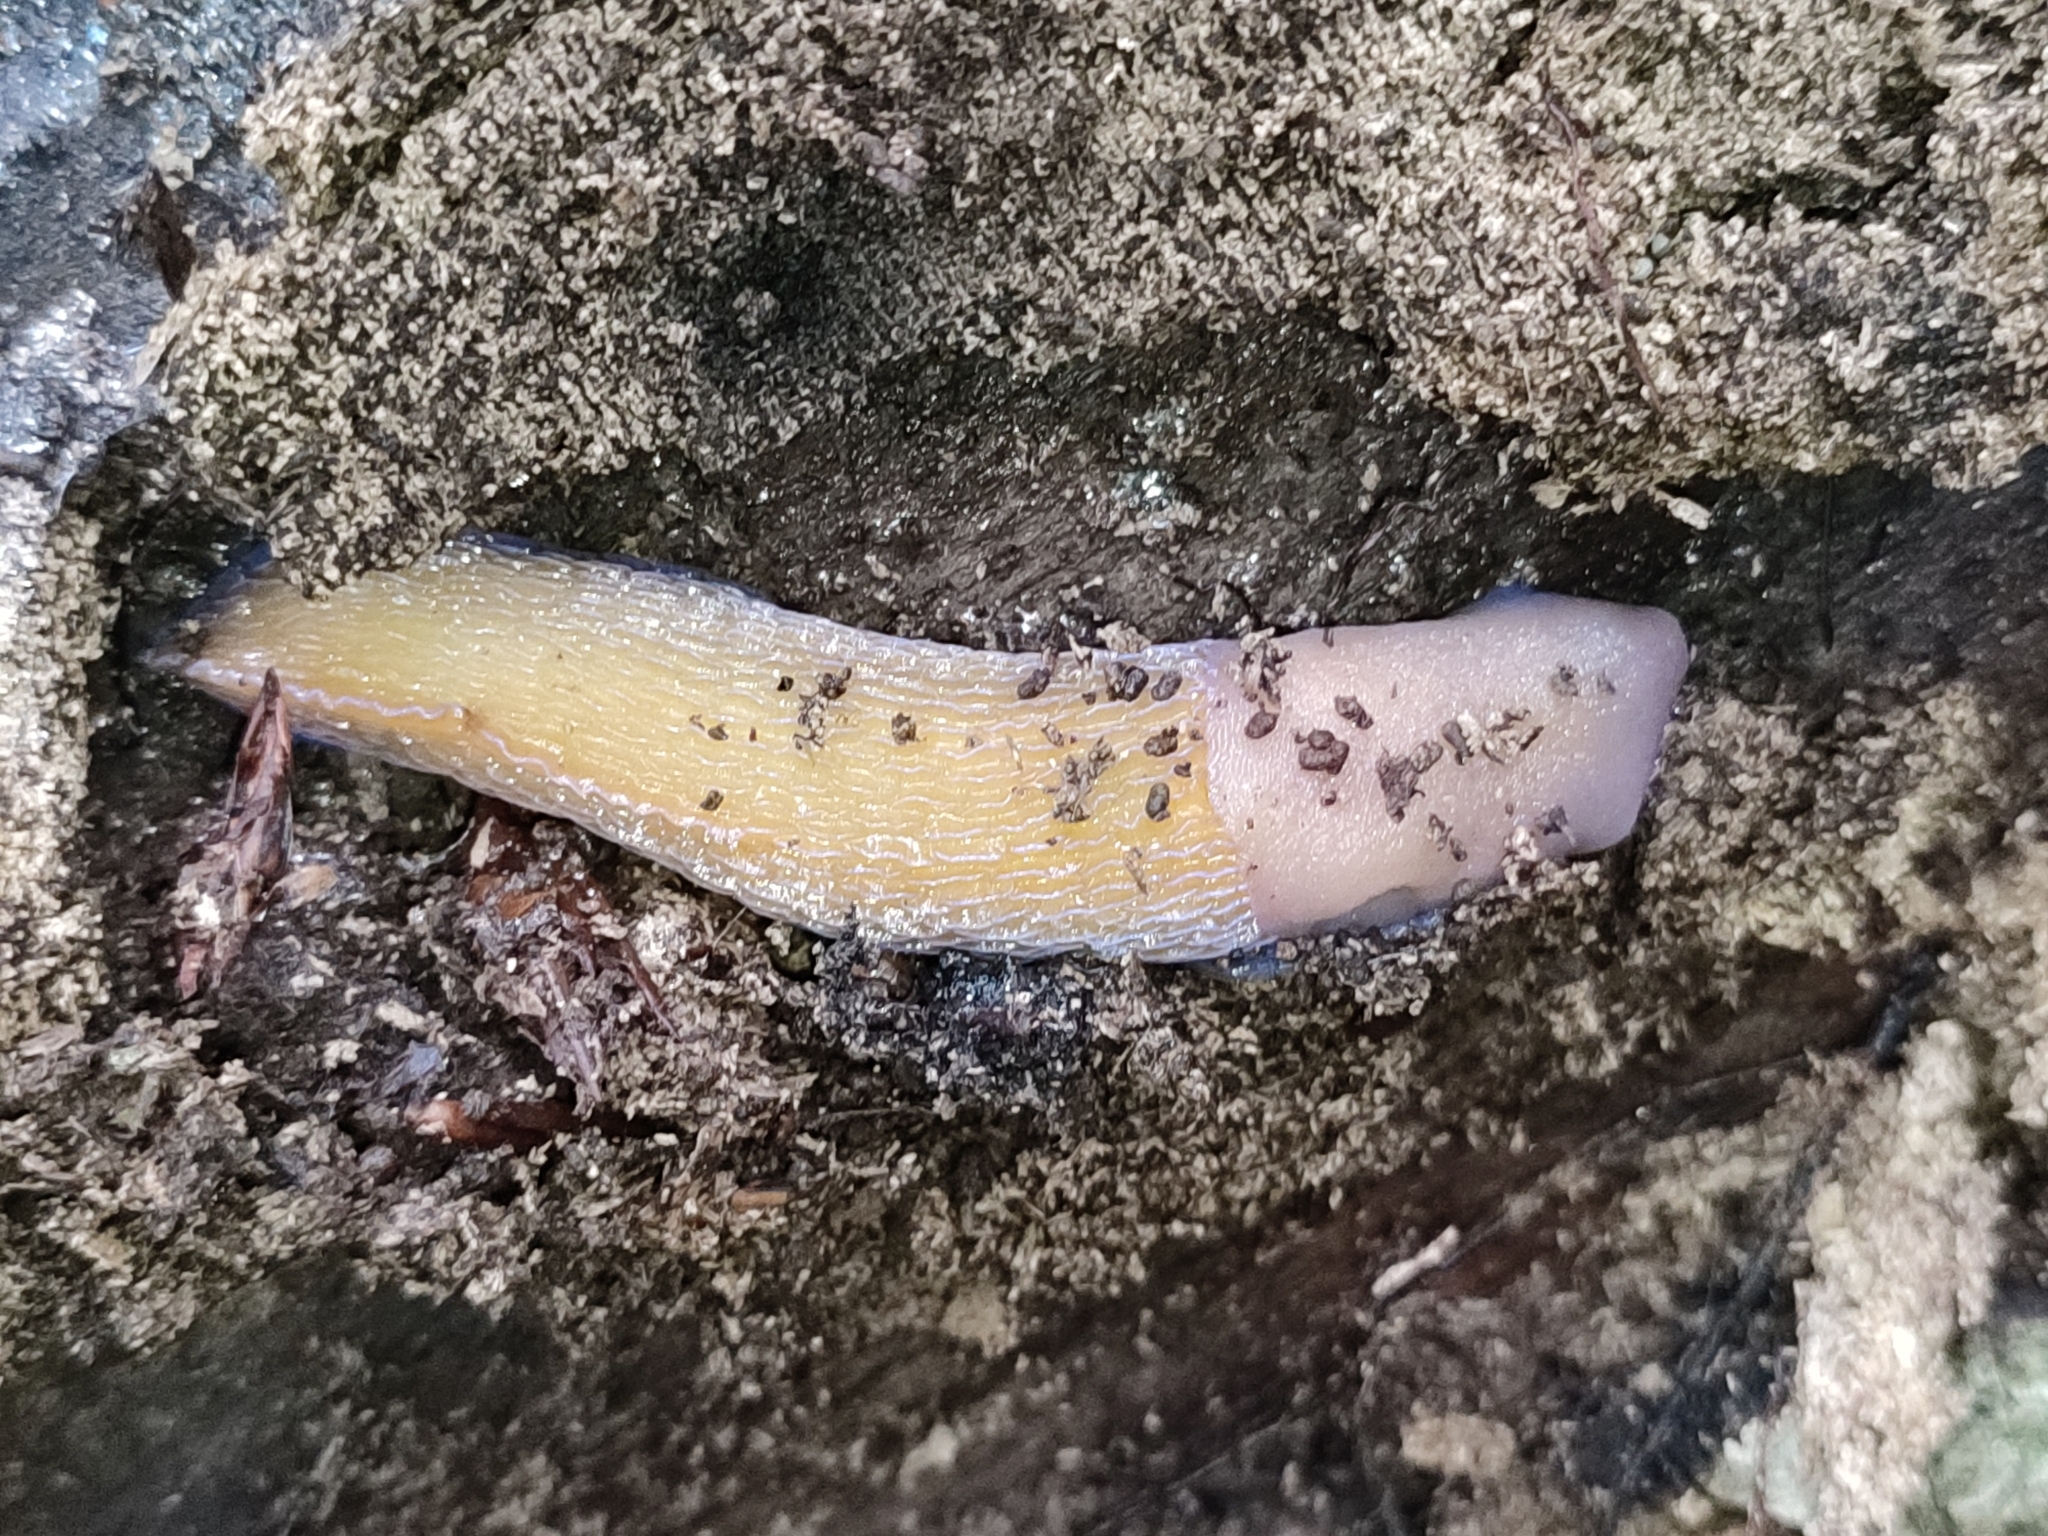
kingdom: Animalia
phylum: Mollusca
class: Gastropoda
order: Stylommatophora
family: Limacidae
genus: Bielzia
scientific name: Bielzia coerulans
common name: Carpathian blue slug
